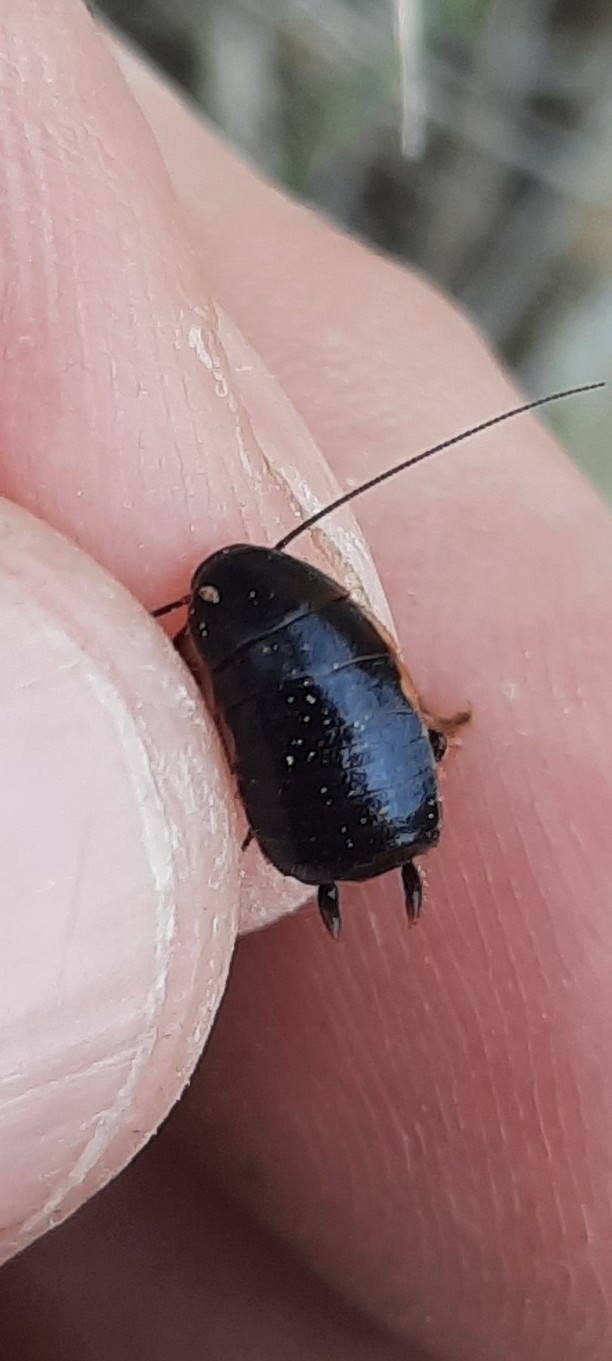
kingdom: Animalia
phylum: Arthropoda
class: Insecta
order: Blattodea
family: Ectobiidae
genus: Loboptera
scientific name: Loboptera decipiens
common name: Lobe-winged cockroach
